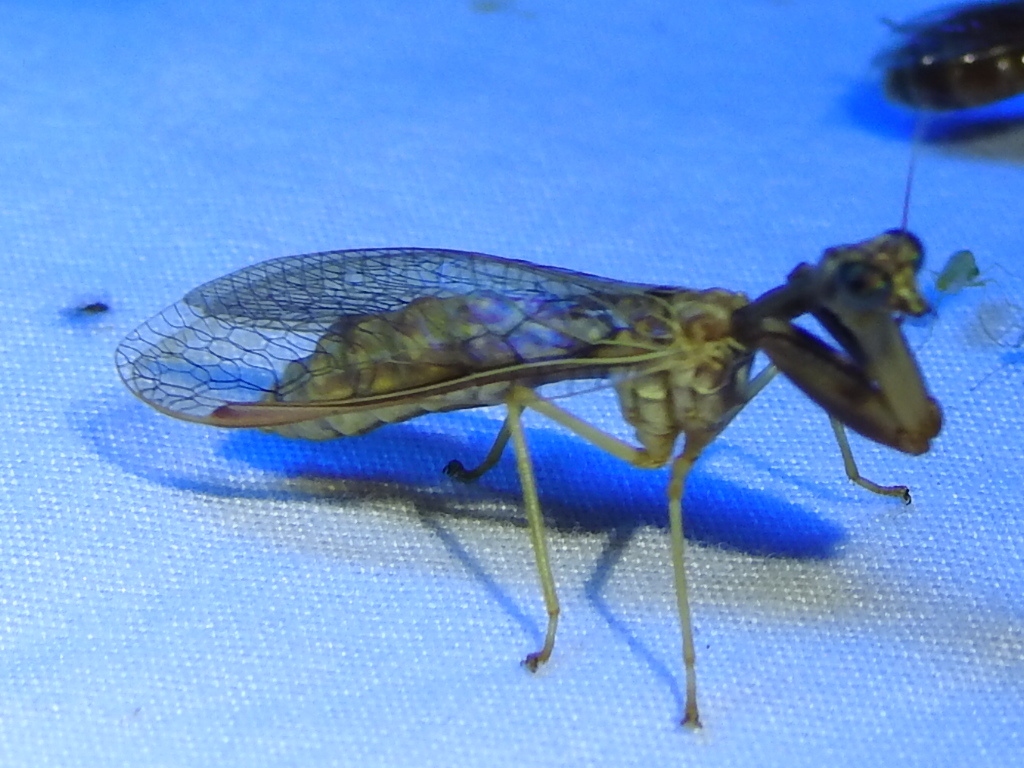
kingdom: Animalia
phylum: Arthropoda
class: Insecta
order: Neuroptera
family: Mantispidae
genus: Dicromantispa
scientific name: Dicromantispa sayi
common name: Say's mantidfly
